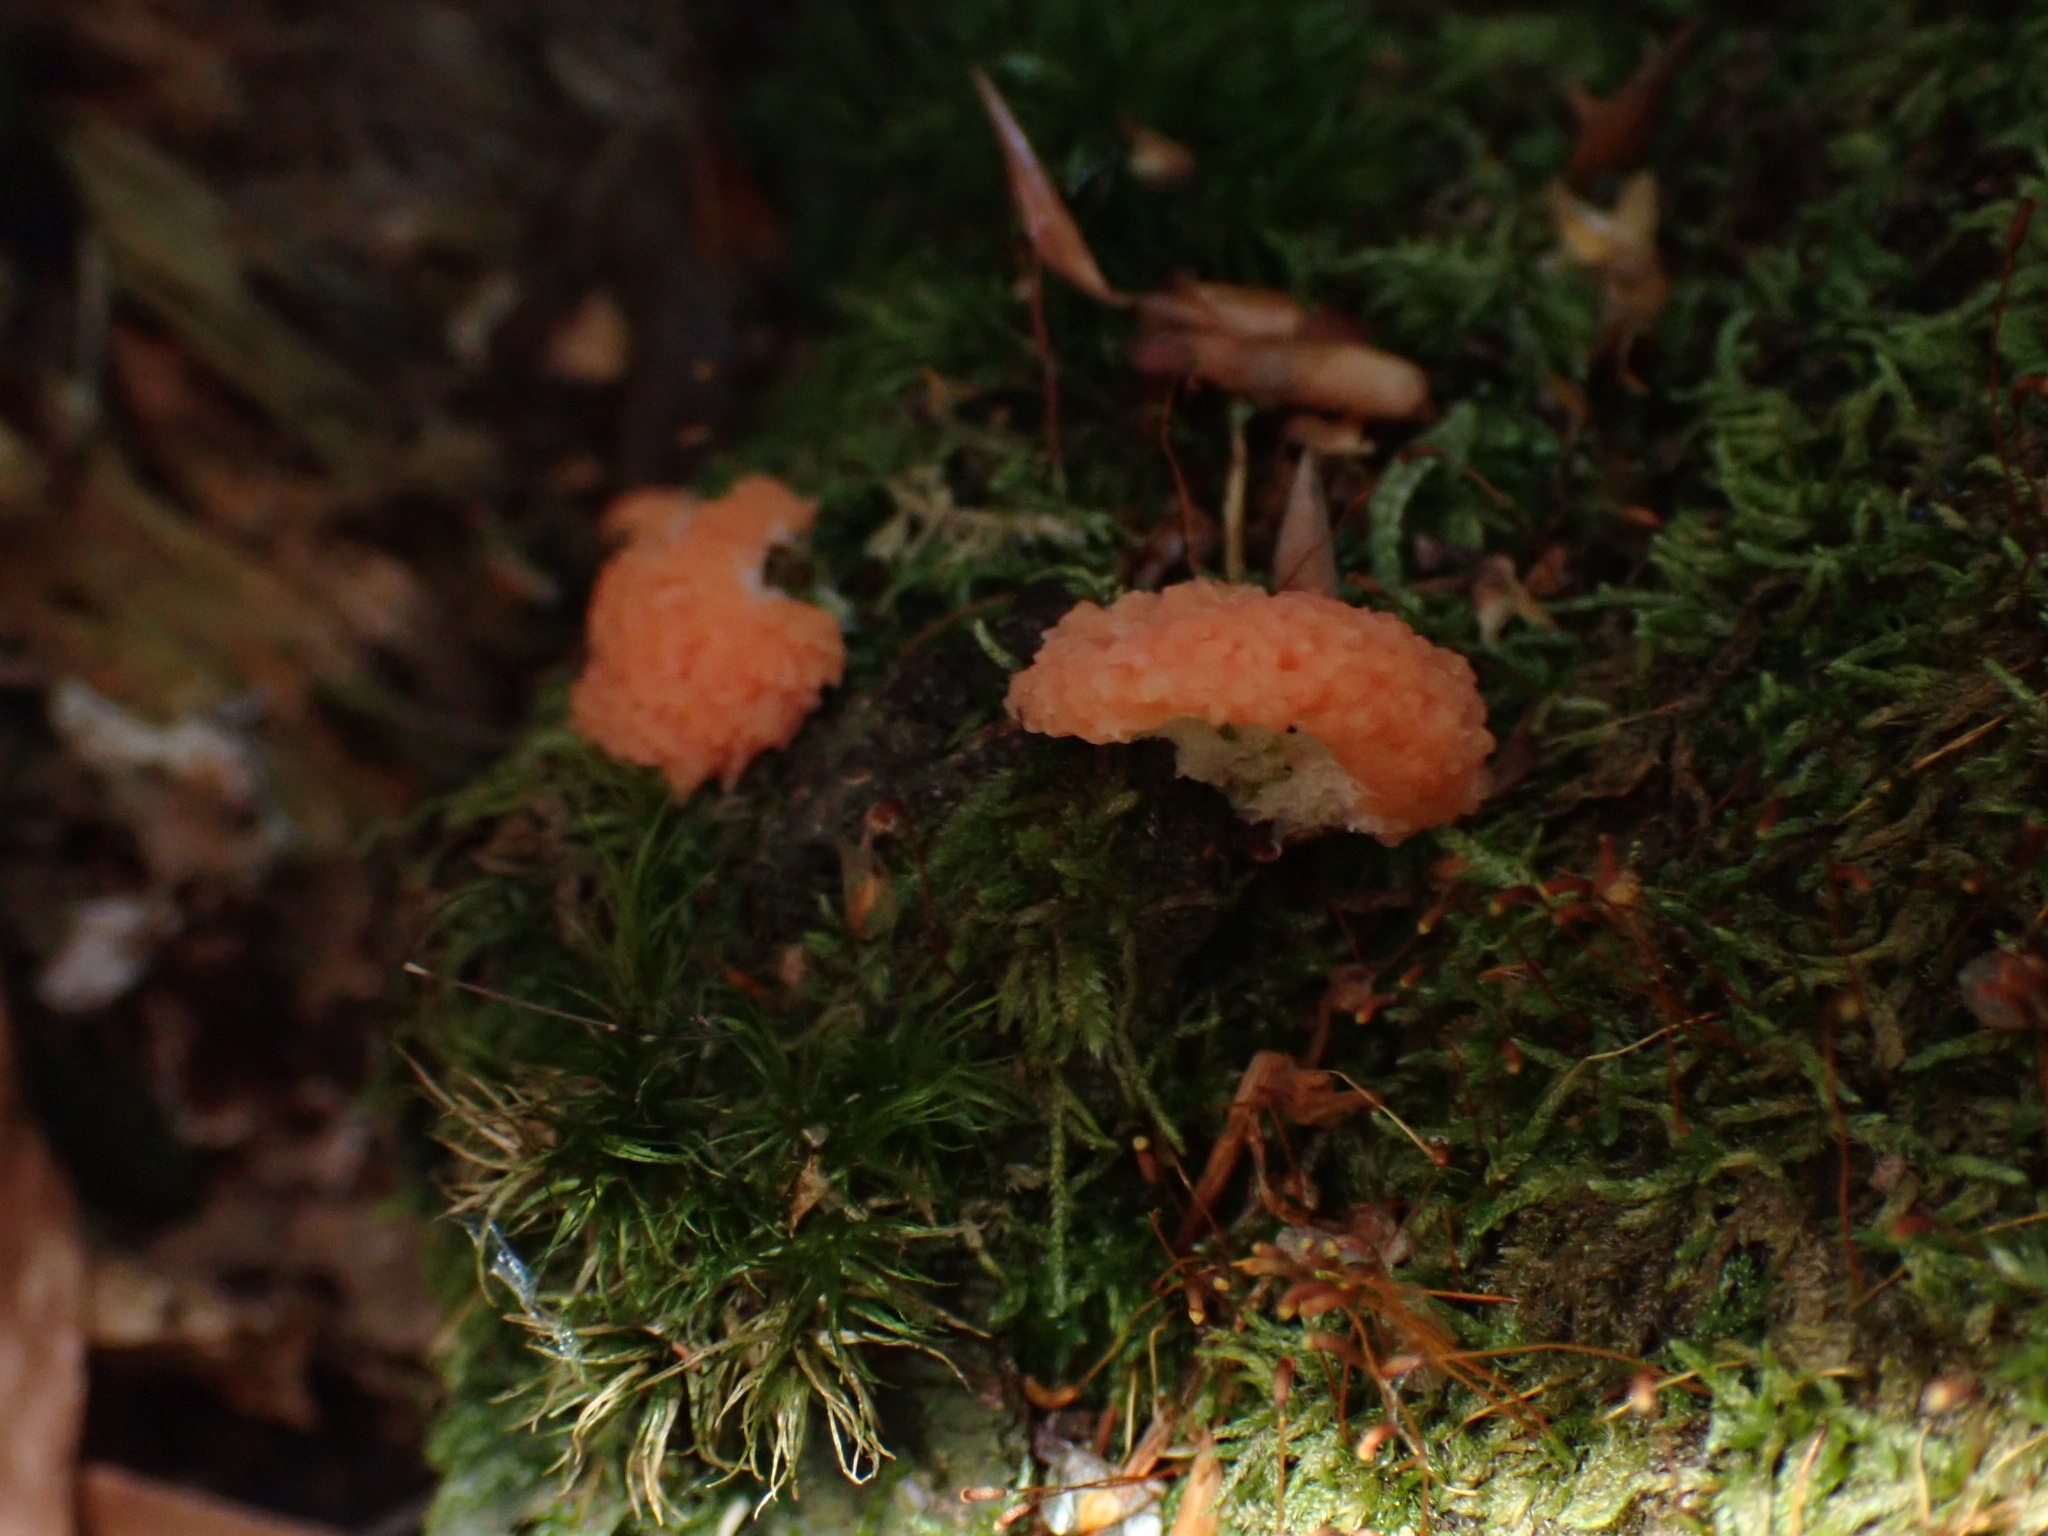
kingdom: Protozoa
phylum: Mycetozoa
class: Myxomycetes
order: Cribrariales
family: Tubiferaceae
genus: Tubifera
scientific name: Tubifera ferruginosa
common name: Red raspberry slime mold
